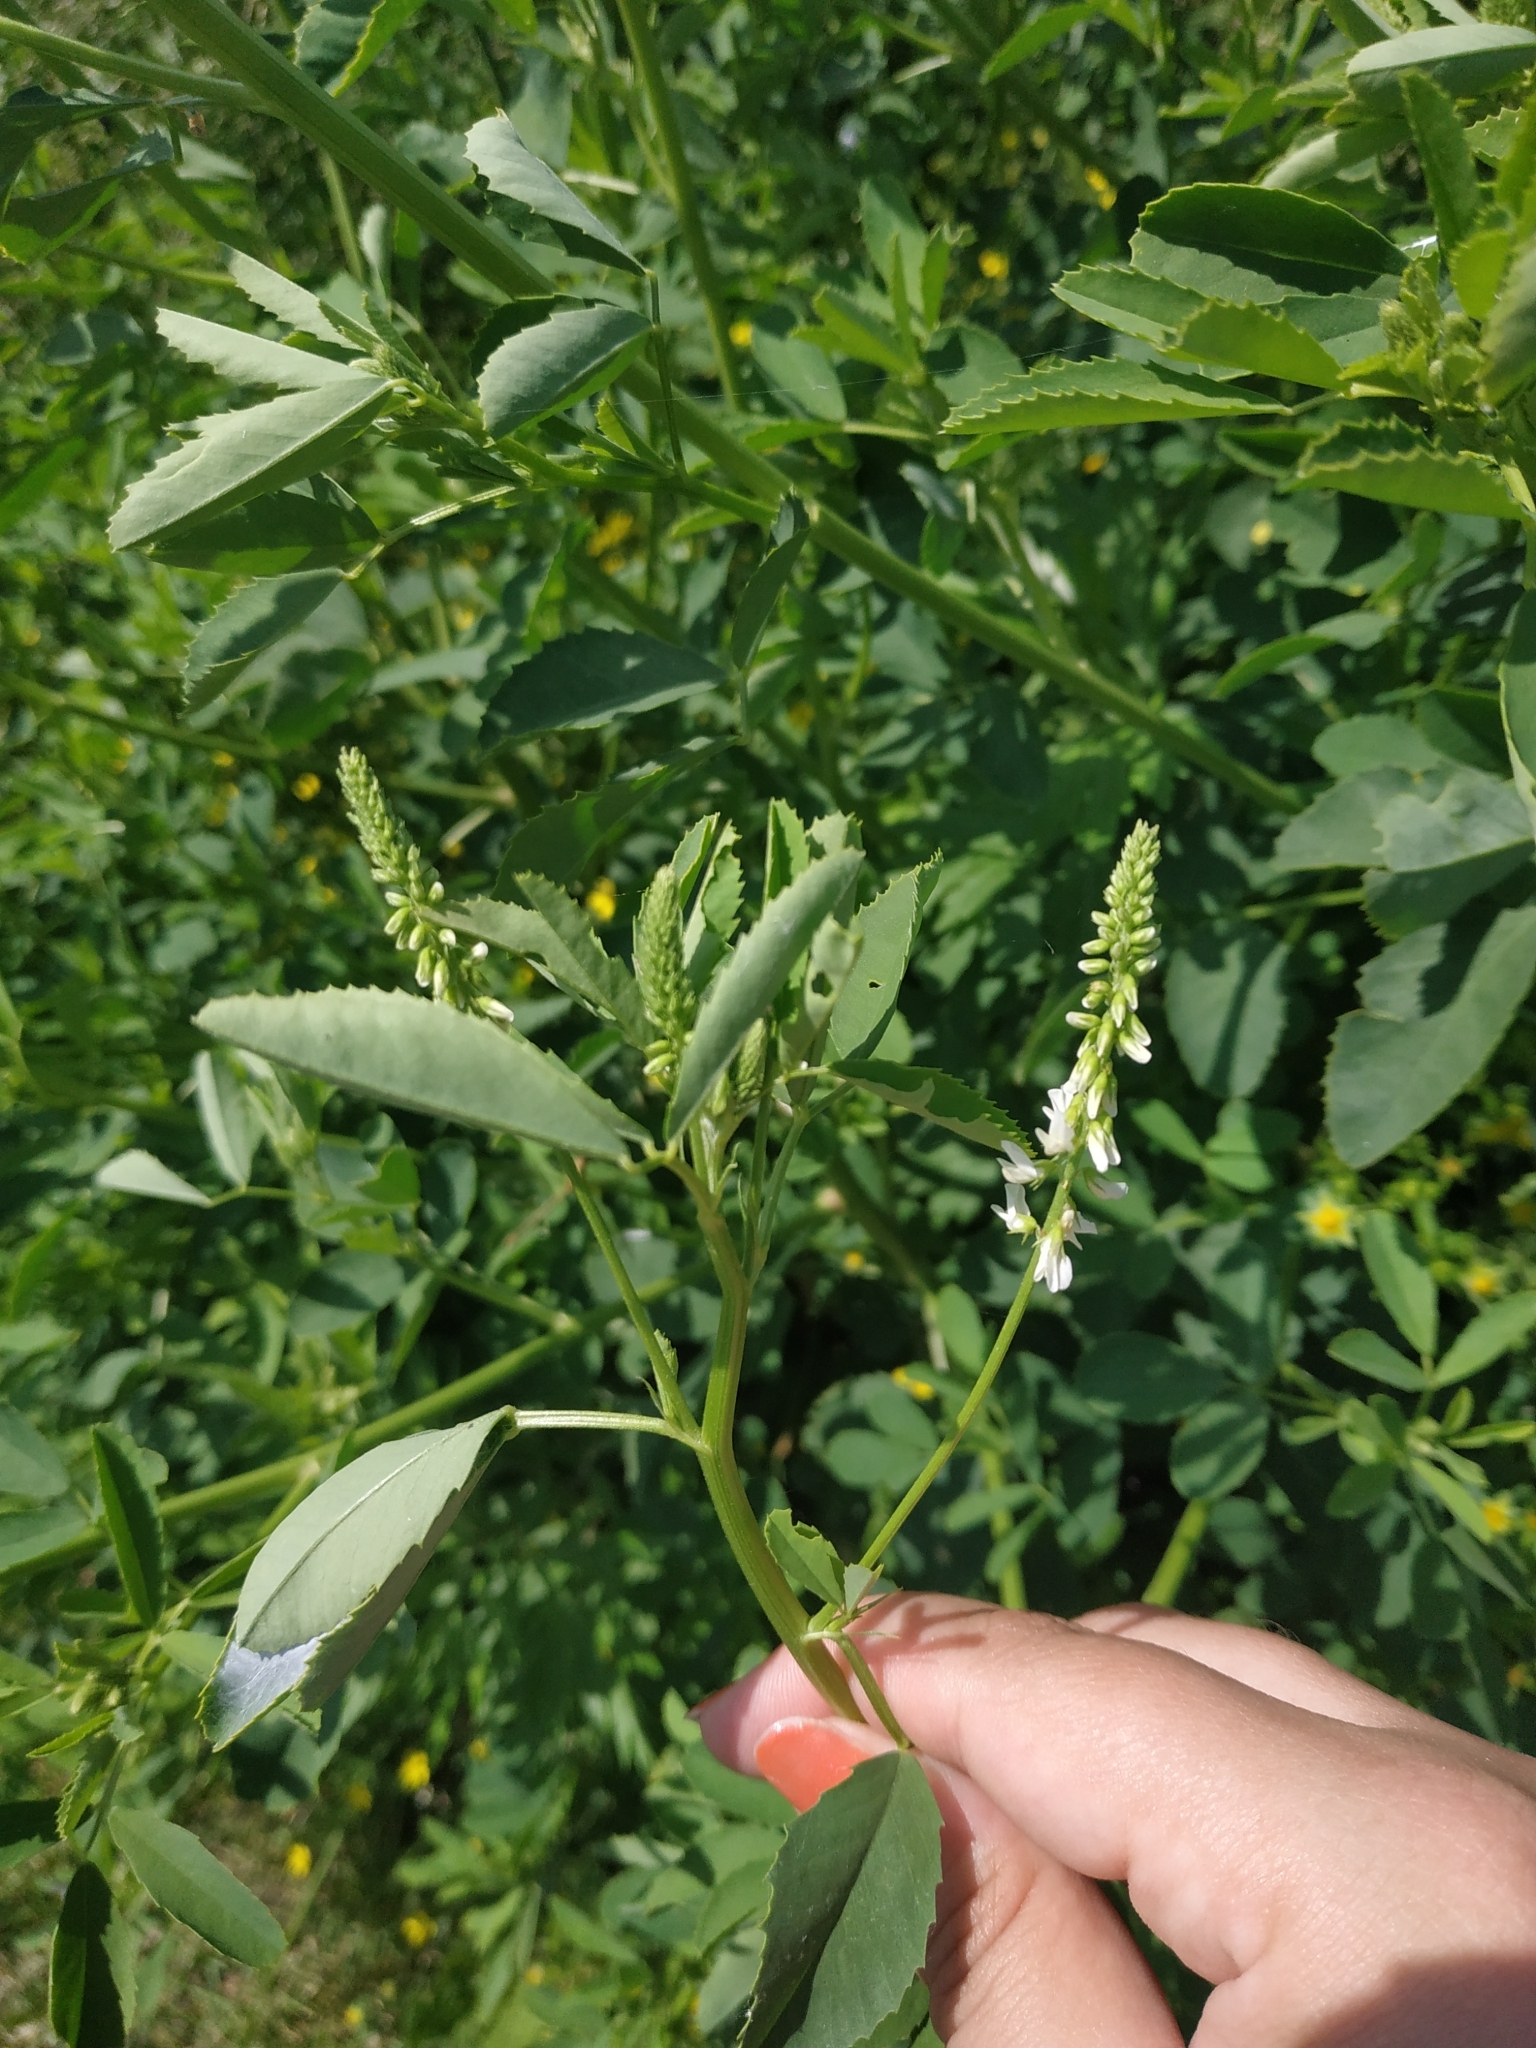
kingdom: Plantae
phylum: Tracheophyta
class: Magnoliopsida
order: Fabales
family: Fabaceae
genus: Melilotus
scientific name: Melilotus albus
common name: White melilot
